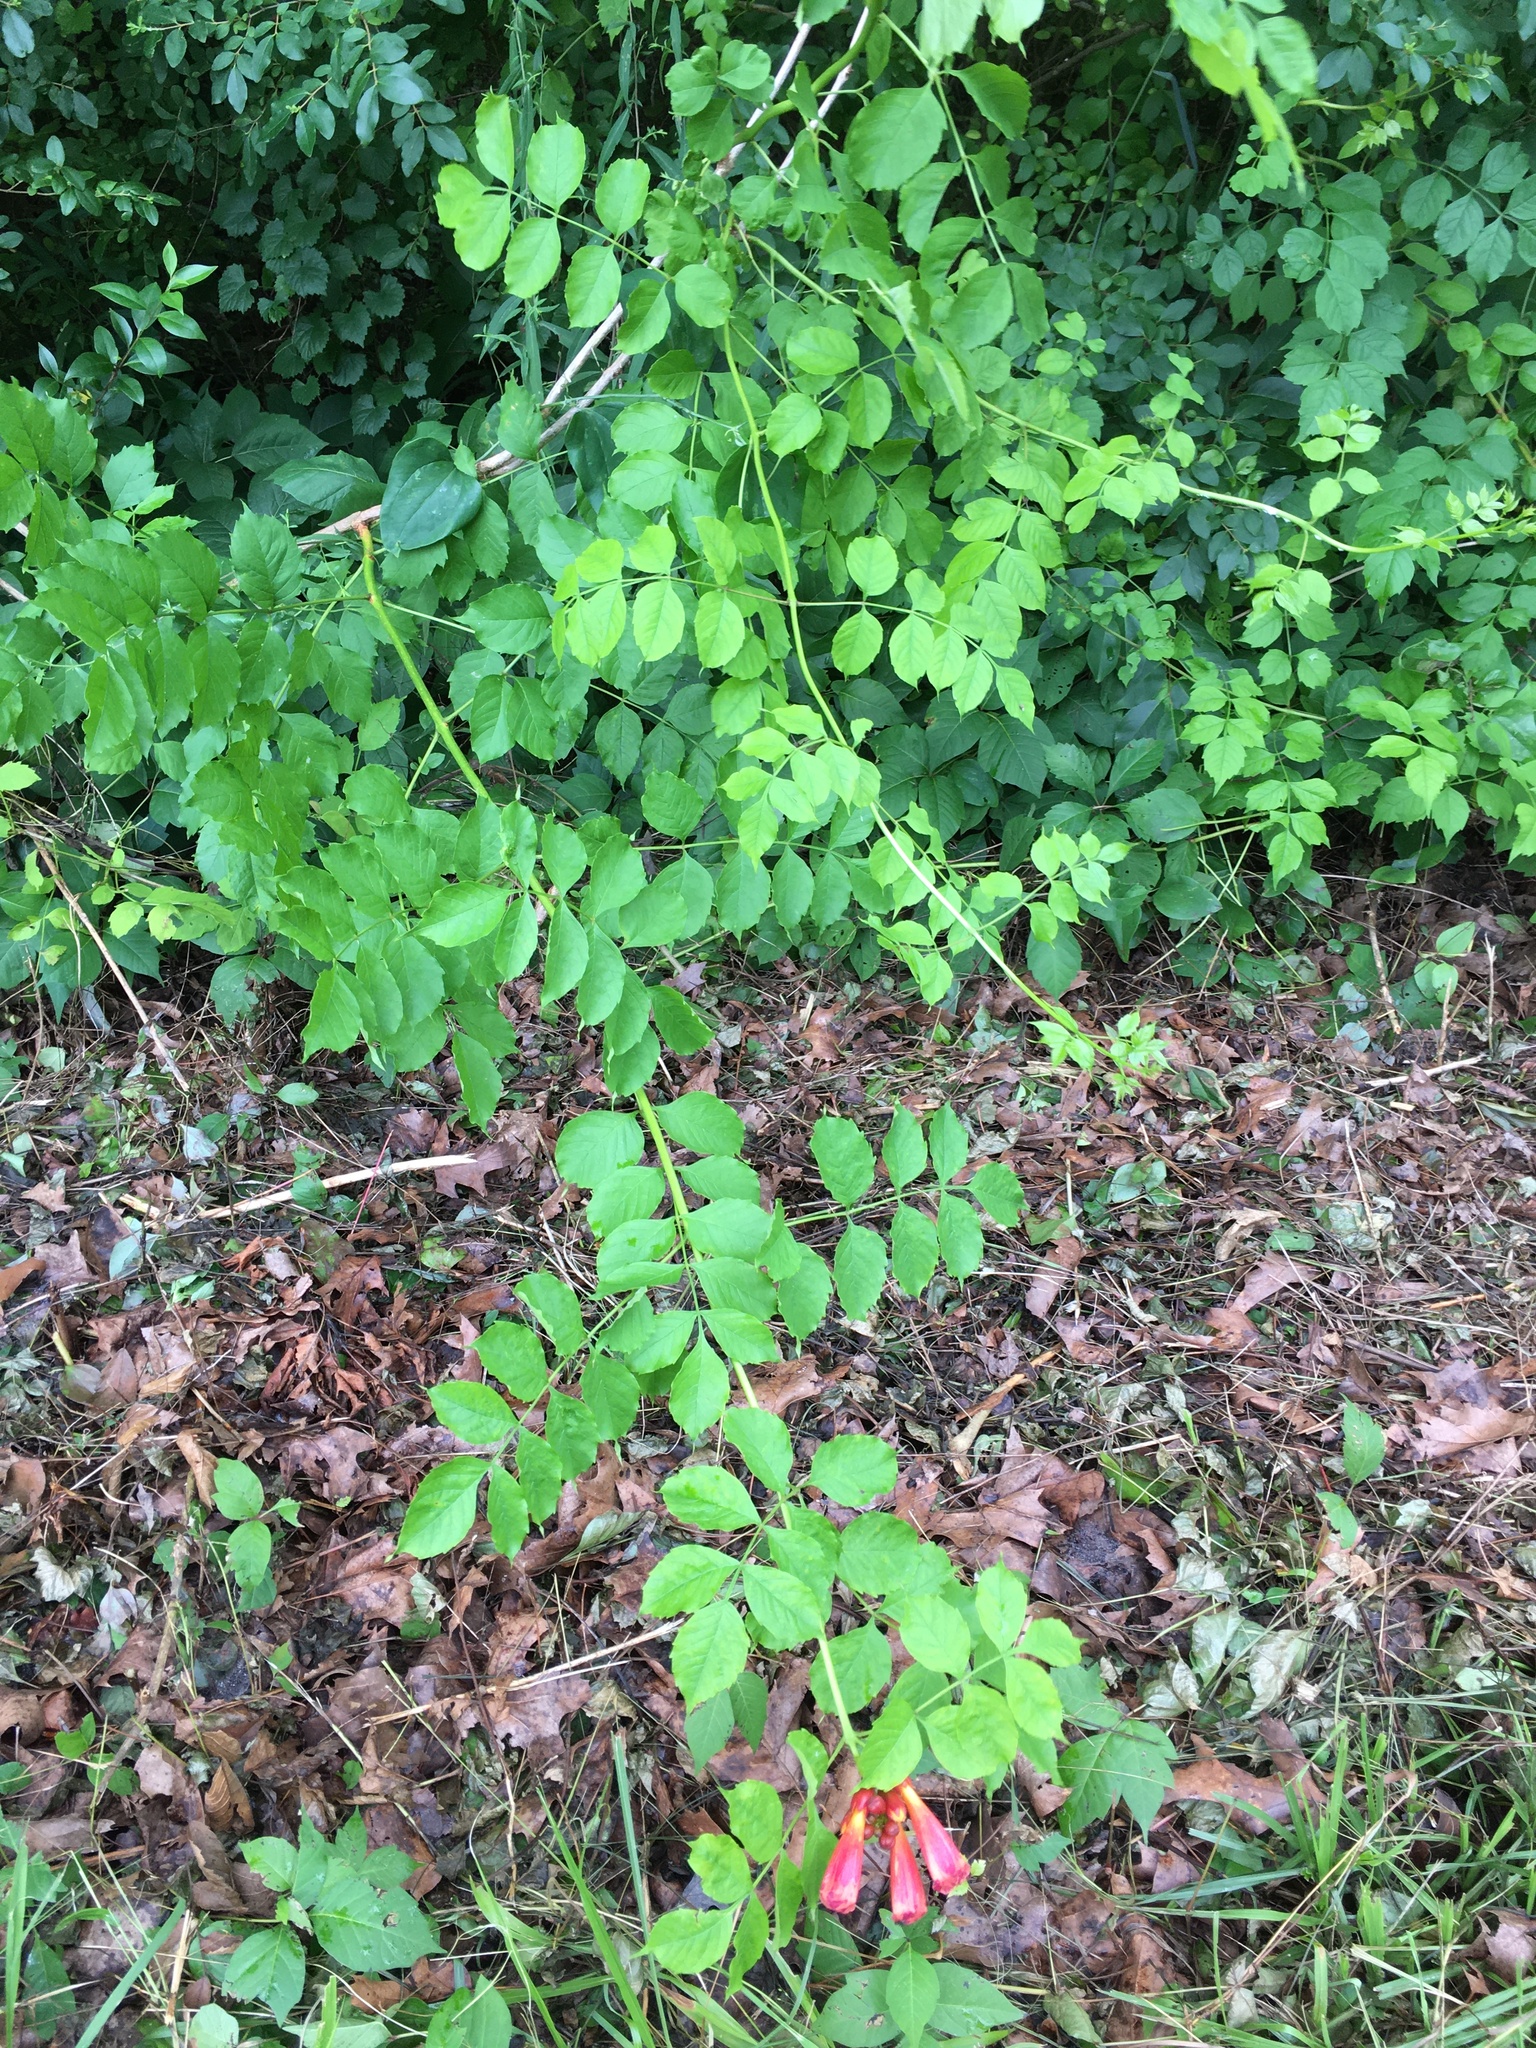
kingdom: Plantae
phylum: Tracheophyta
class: Magnoliopsida
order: Lamiales
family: Bignoniaceae
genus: Campsis
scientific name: Campsis radicans
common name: Trumpet-creeper
